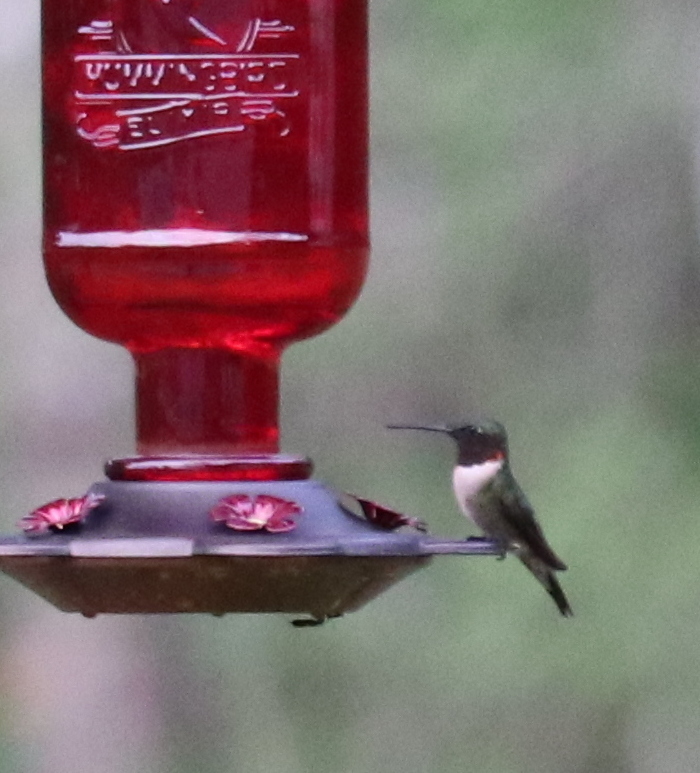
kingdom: Animalia
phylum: Chordata
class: Aves
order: Apodiformes
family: Trochilidae
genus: Archilochus
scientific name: Archilochus colubris
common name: Ruby-throated hummingbird
